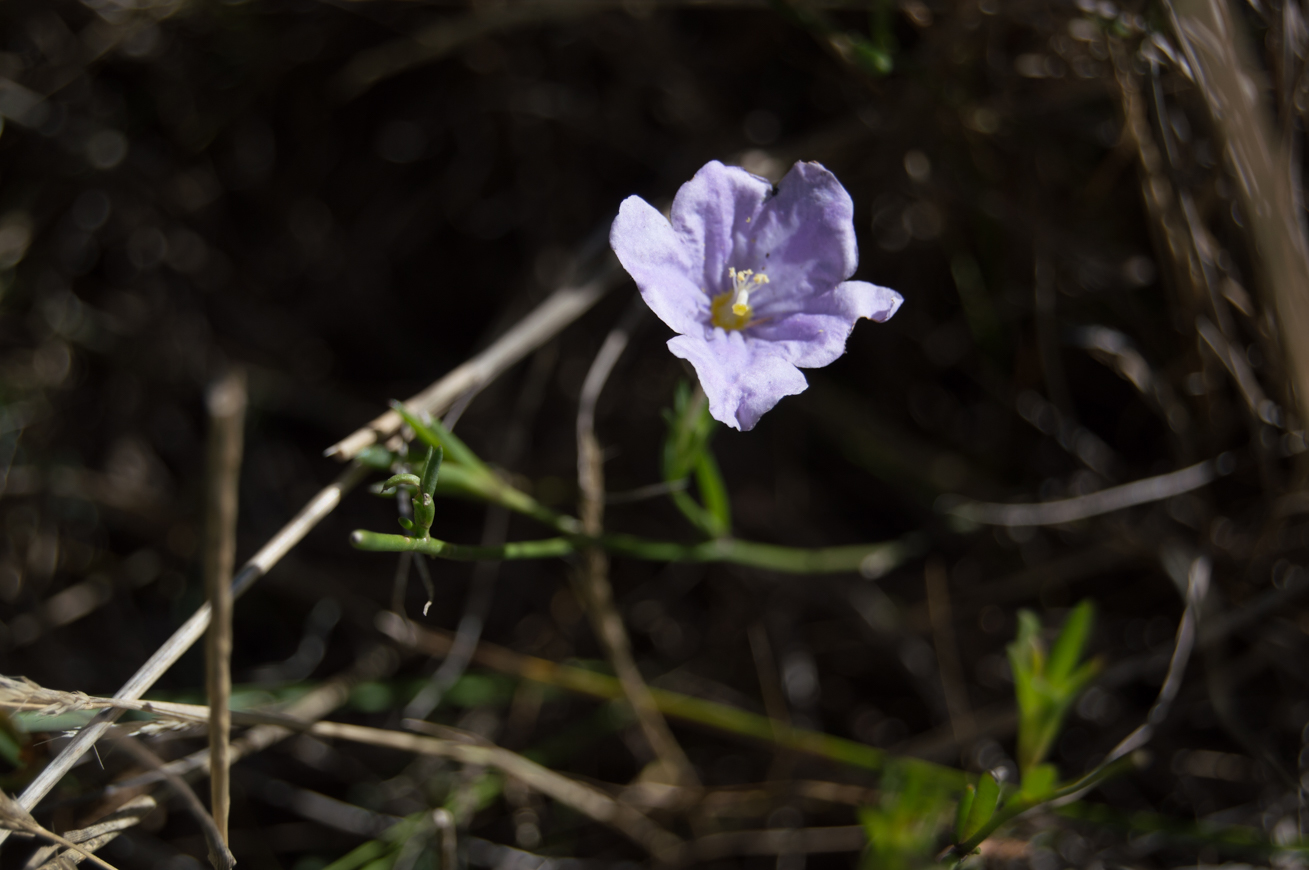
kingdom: Plantae
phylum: Tracheophyta
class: Magnoliopsida
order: Solanales
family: Solanaceae
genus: Nierembergia
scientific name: Nierembergia aristata
